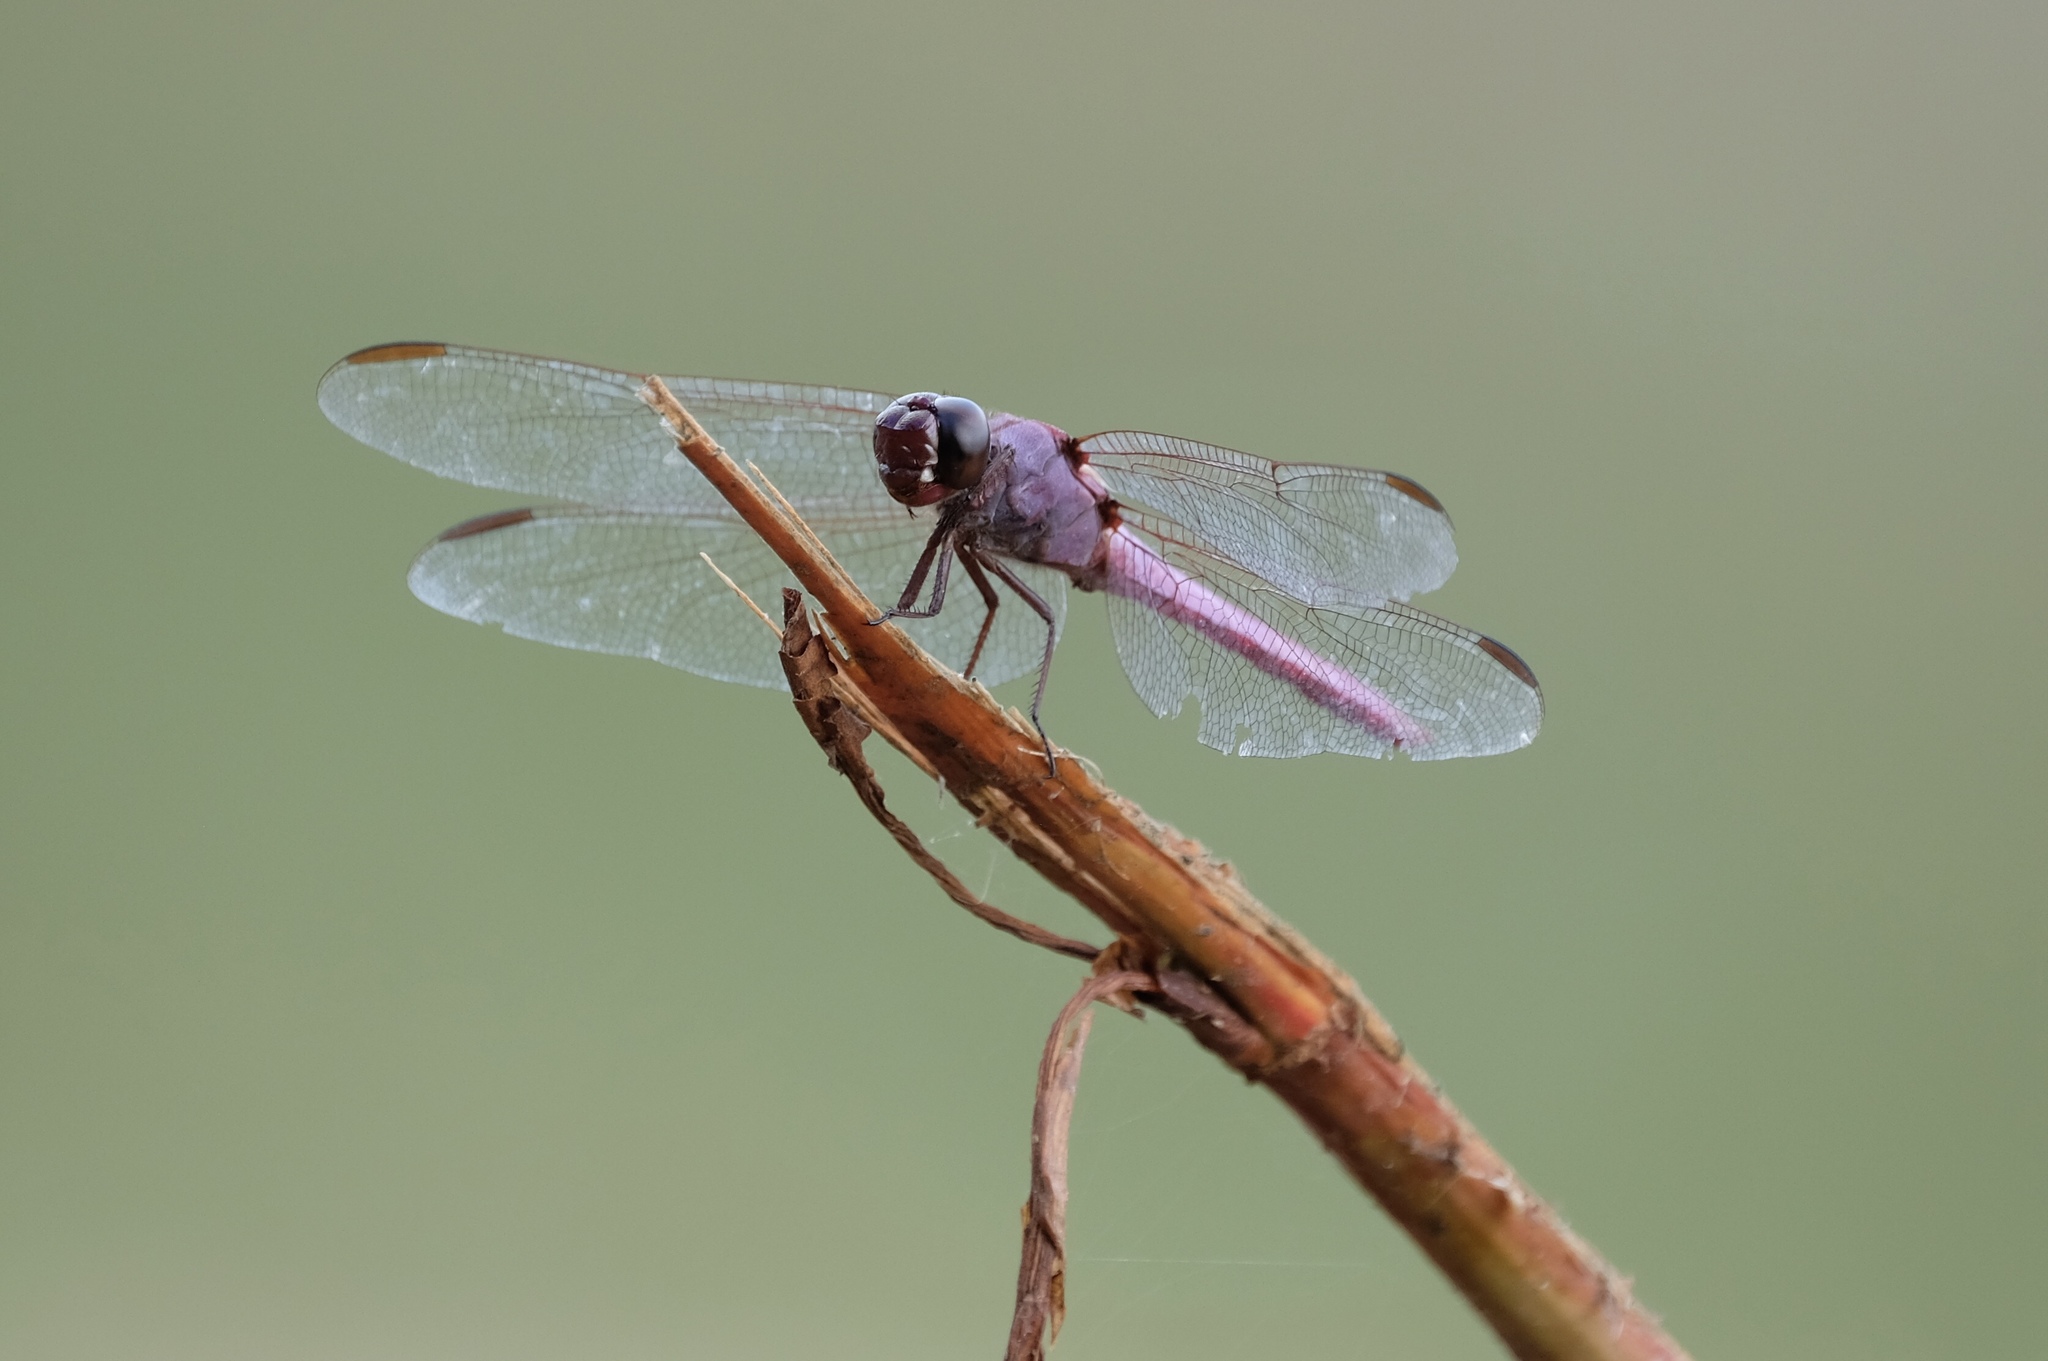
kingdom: Animalia
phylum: Arthropoda
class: Insecta
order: Odonata
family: Libellulidae
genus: Orthemis
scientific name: Orthemis ferruginea
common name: Roseate skimmer
